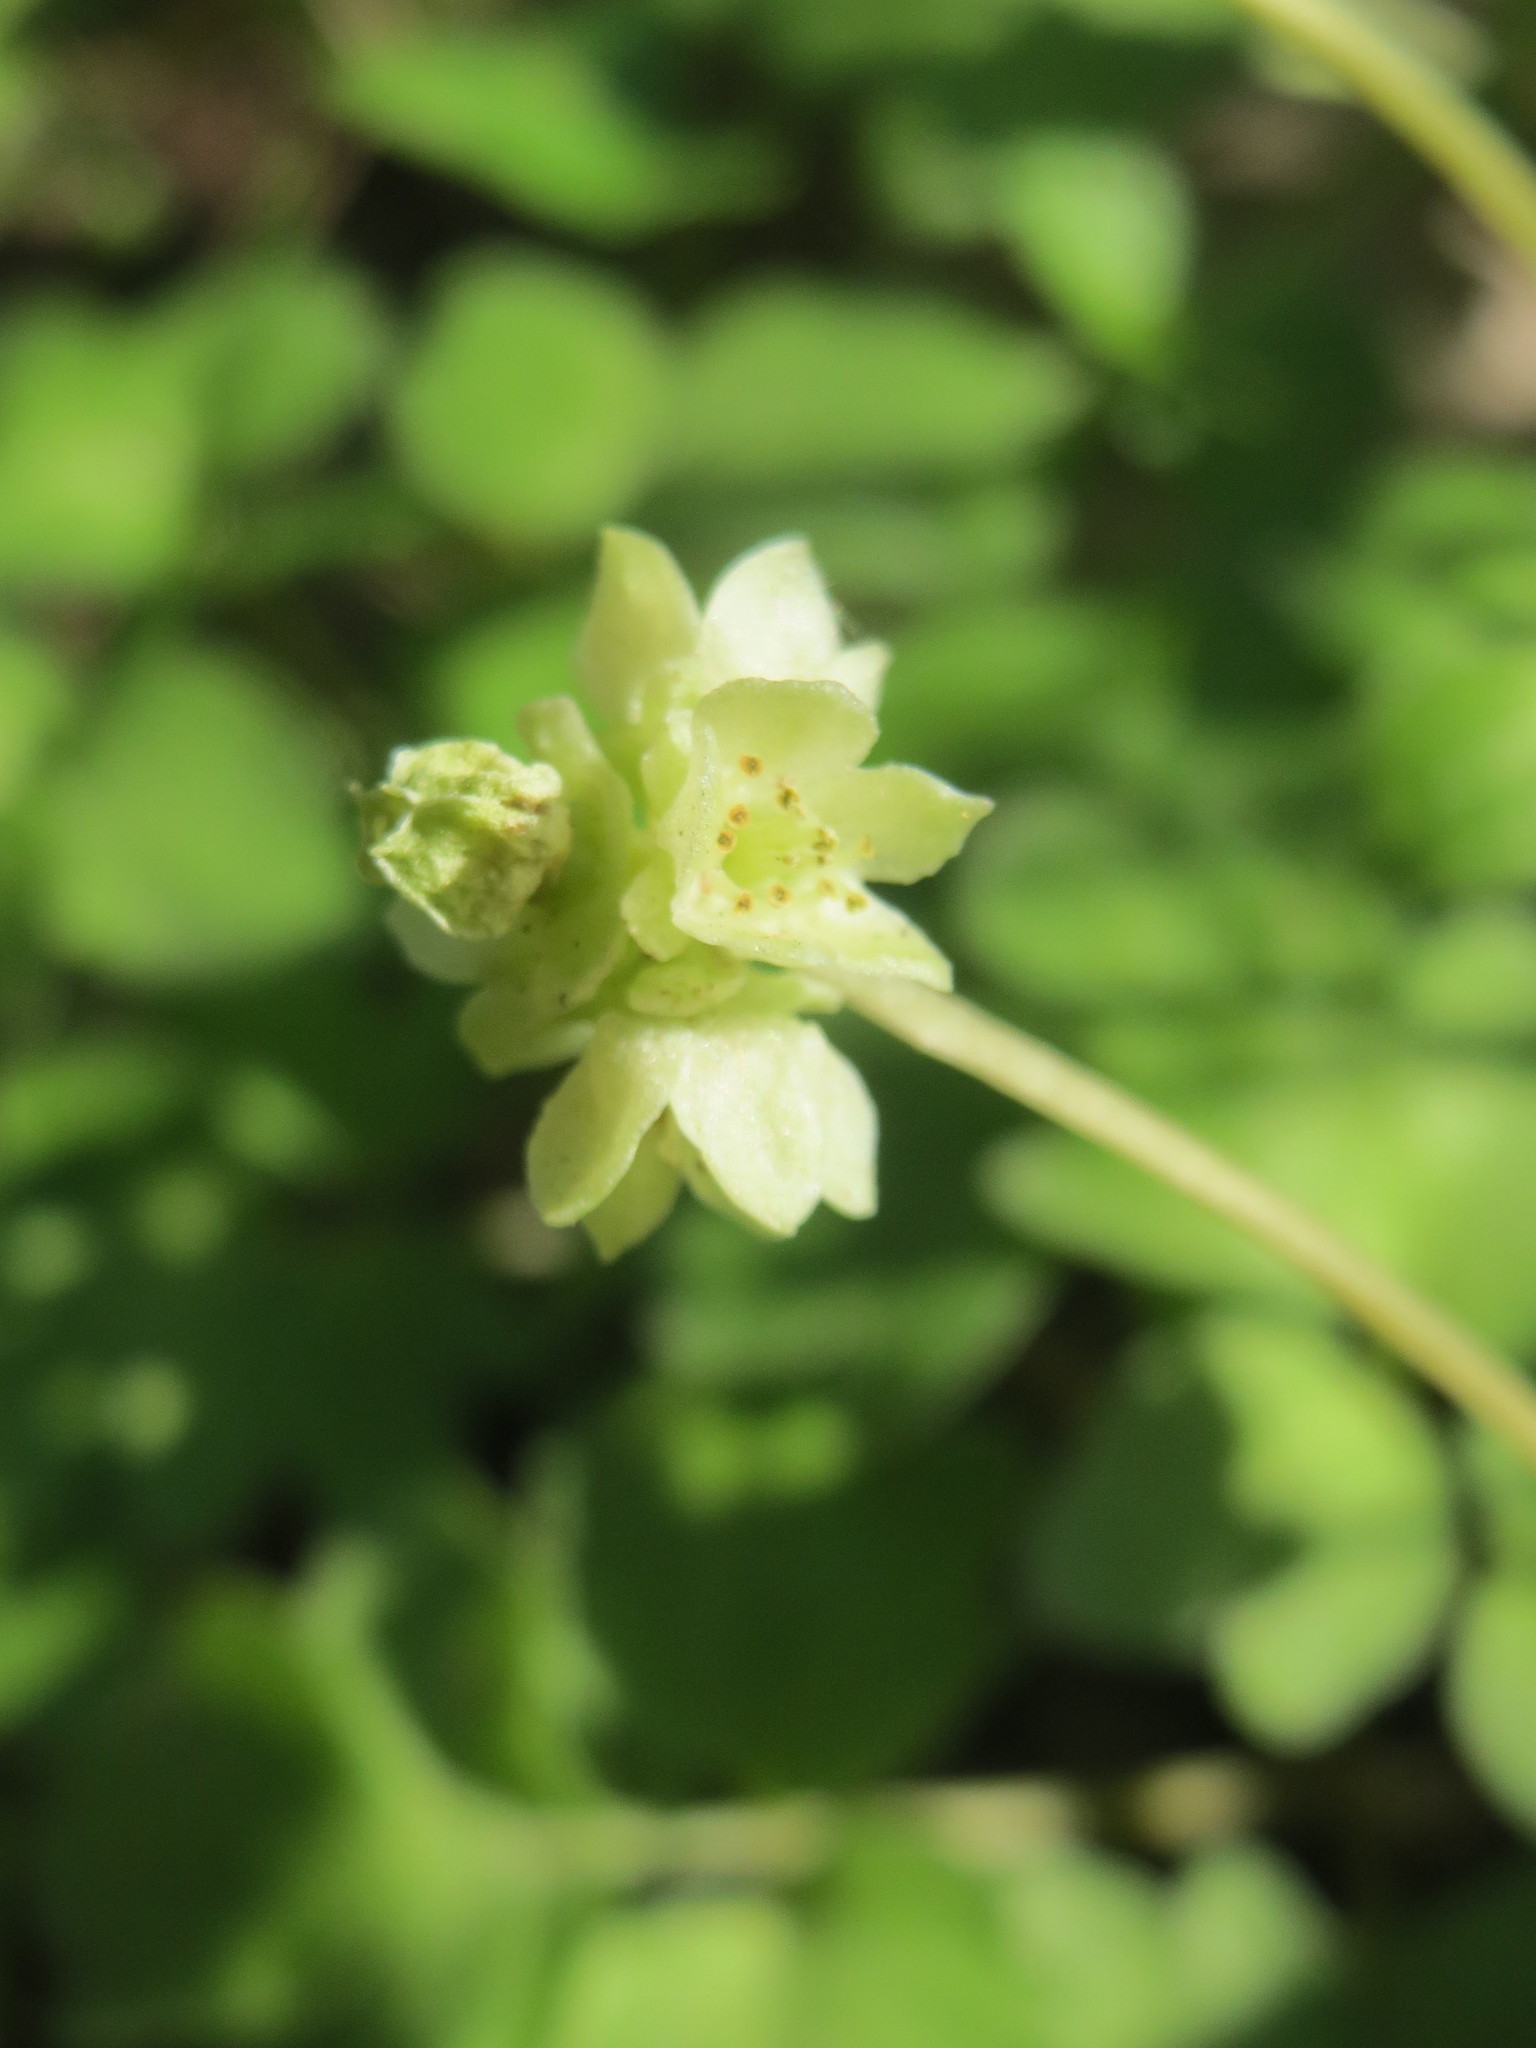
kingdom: Plantae
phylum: Tracheophyta
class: Magnoliopsida
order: Dipsacales
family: Viburnaceae
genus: Adoxa
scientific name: Adoxa moschatellina
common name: Moschatel
